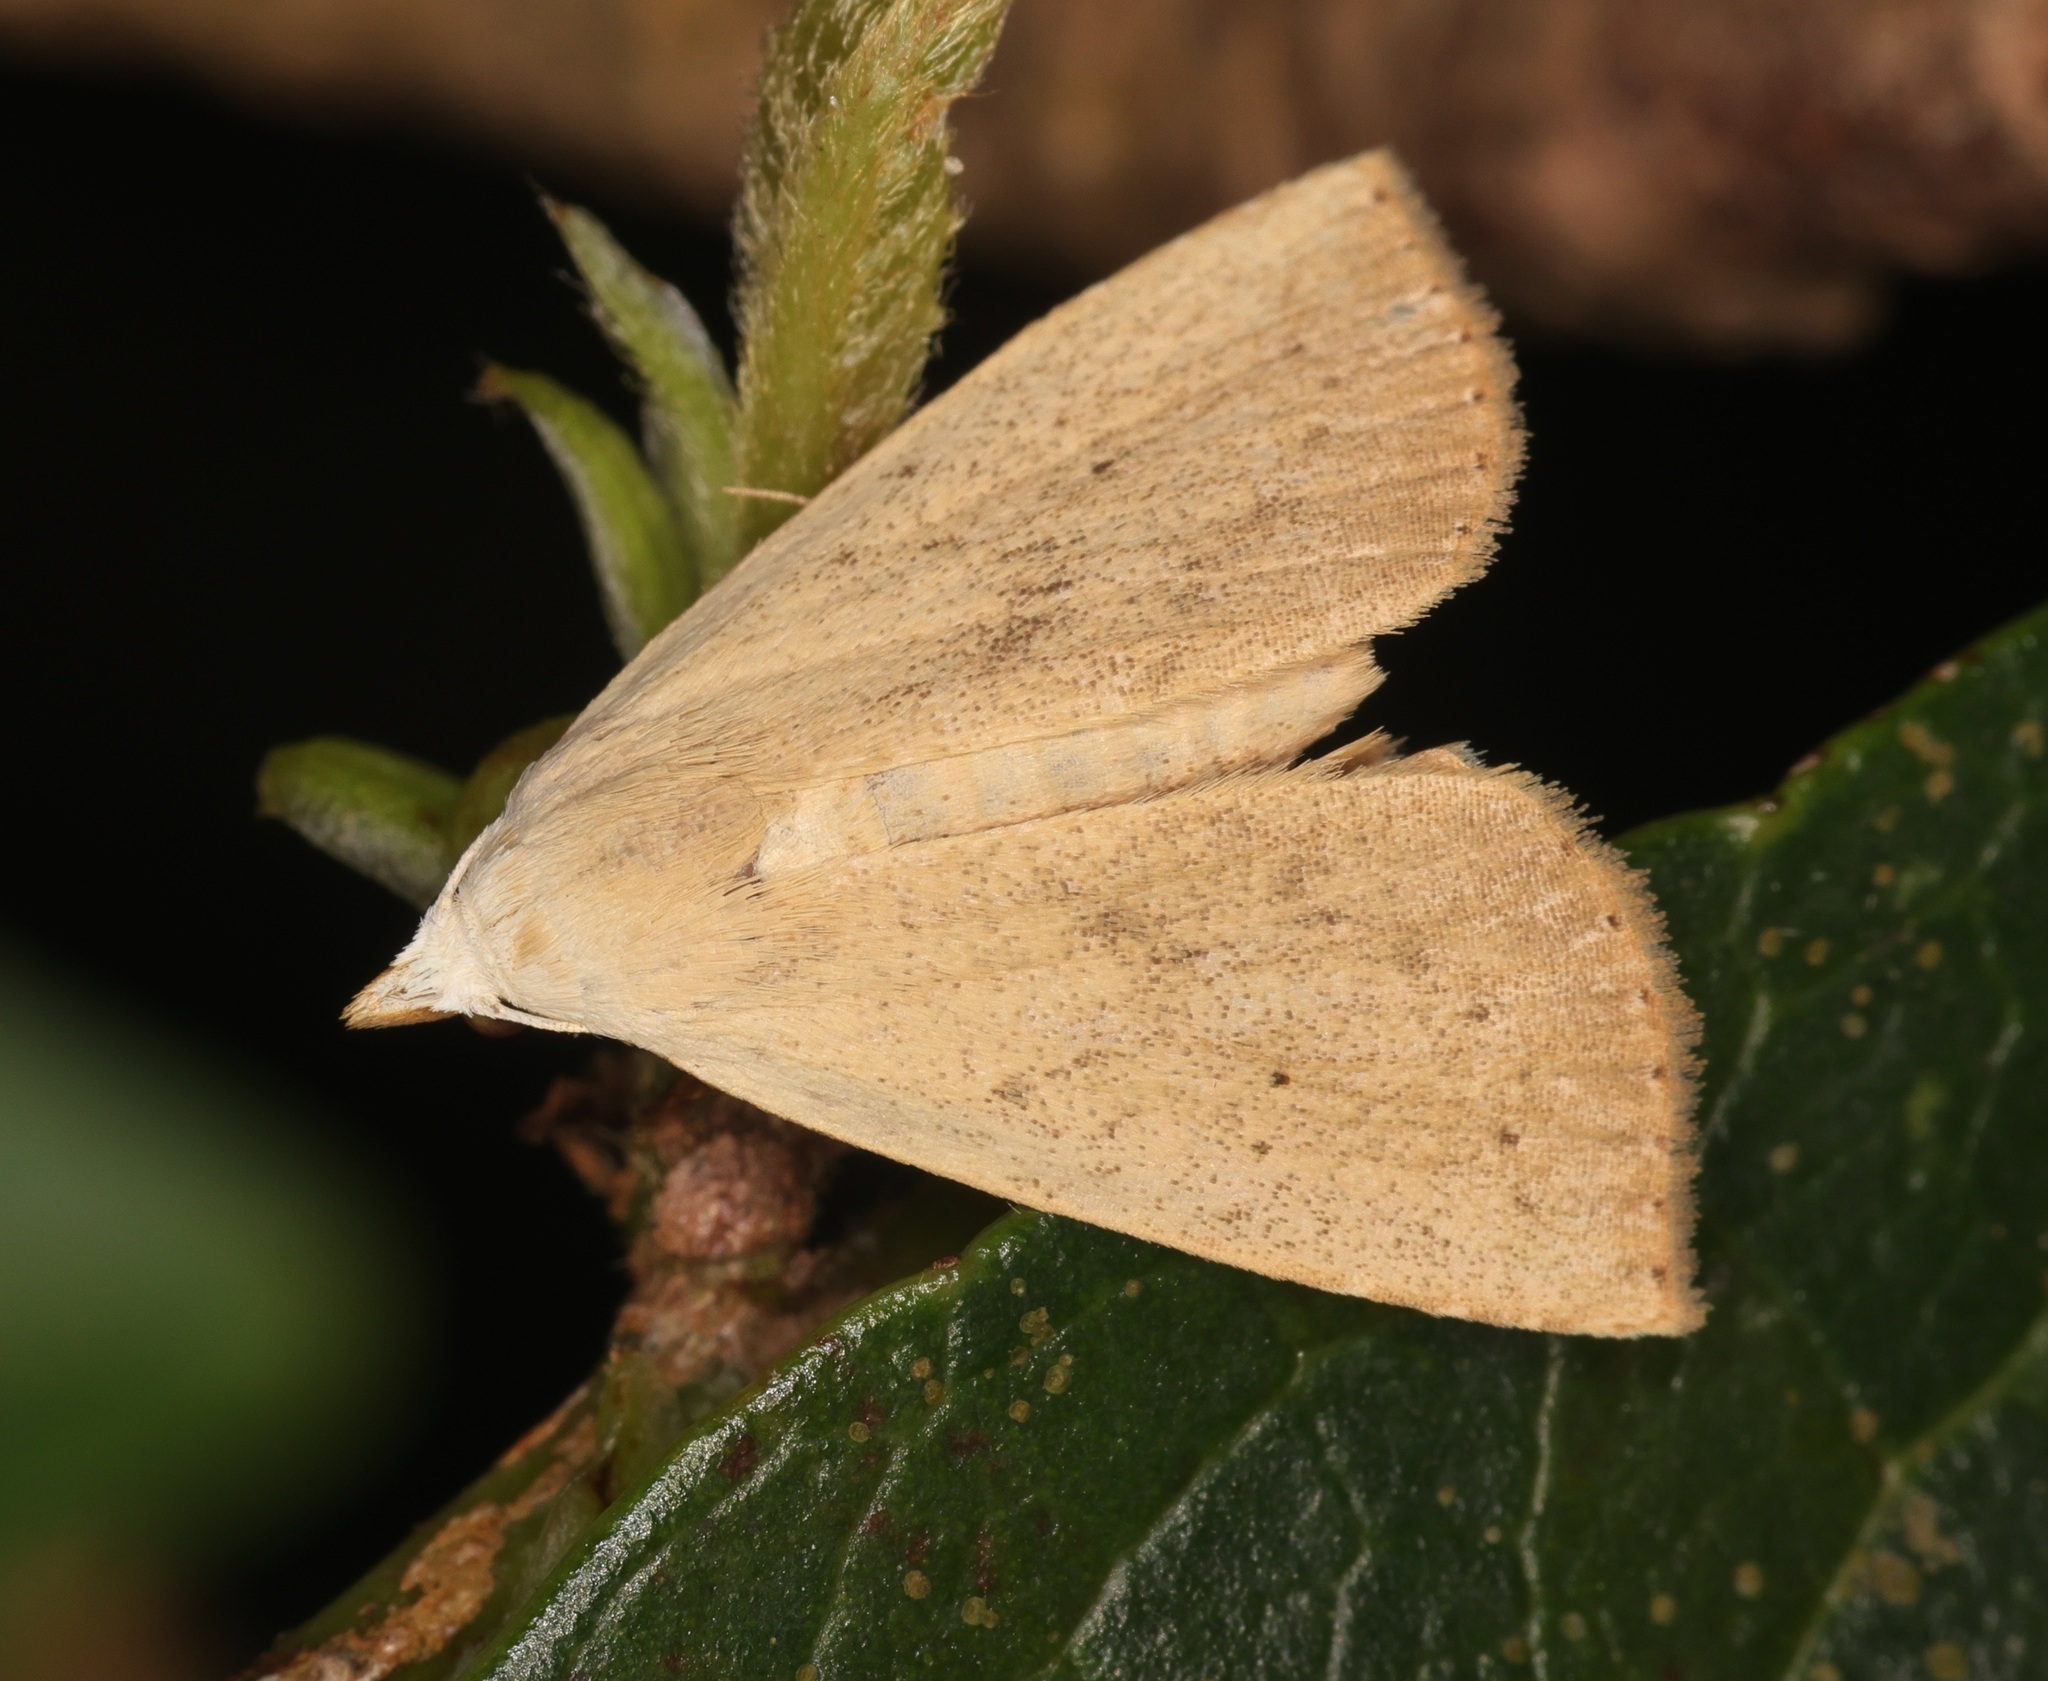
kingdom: Animalia
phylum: Arthropoda
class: Insecta
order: Lepidoptera
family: Erebidae
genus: Rivula
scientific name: Rivula ochracea
